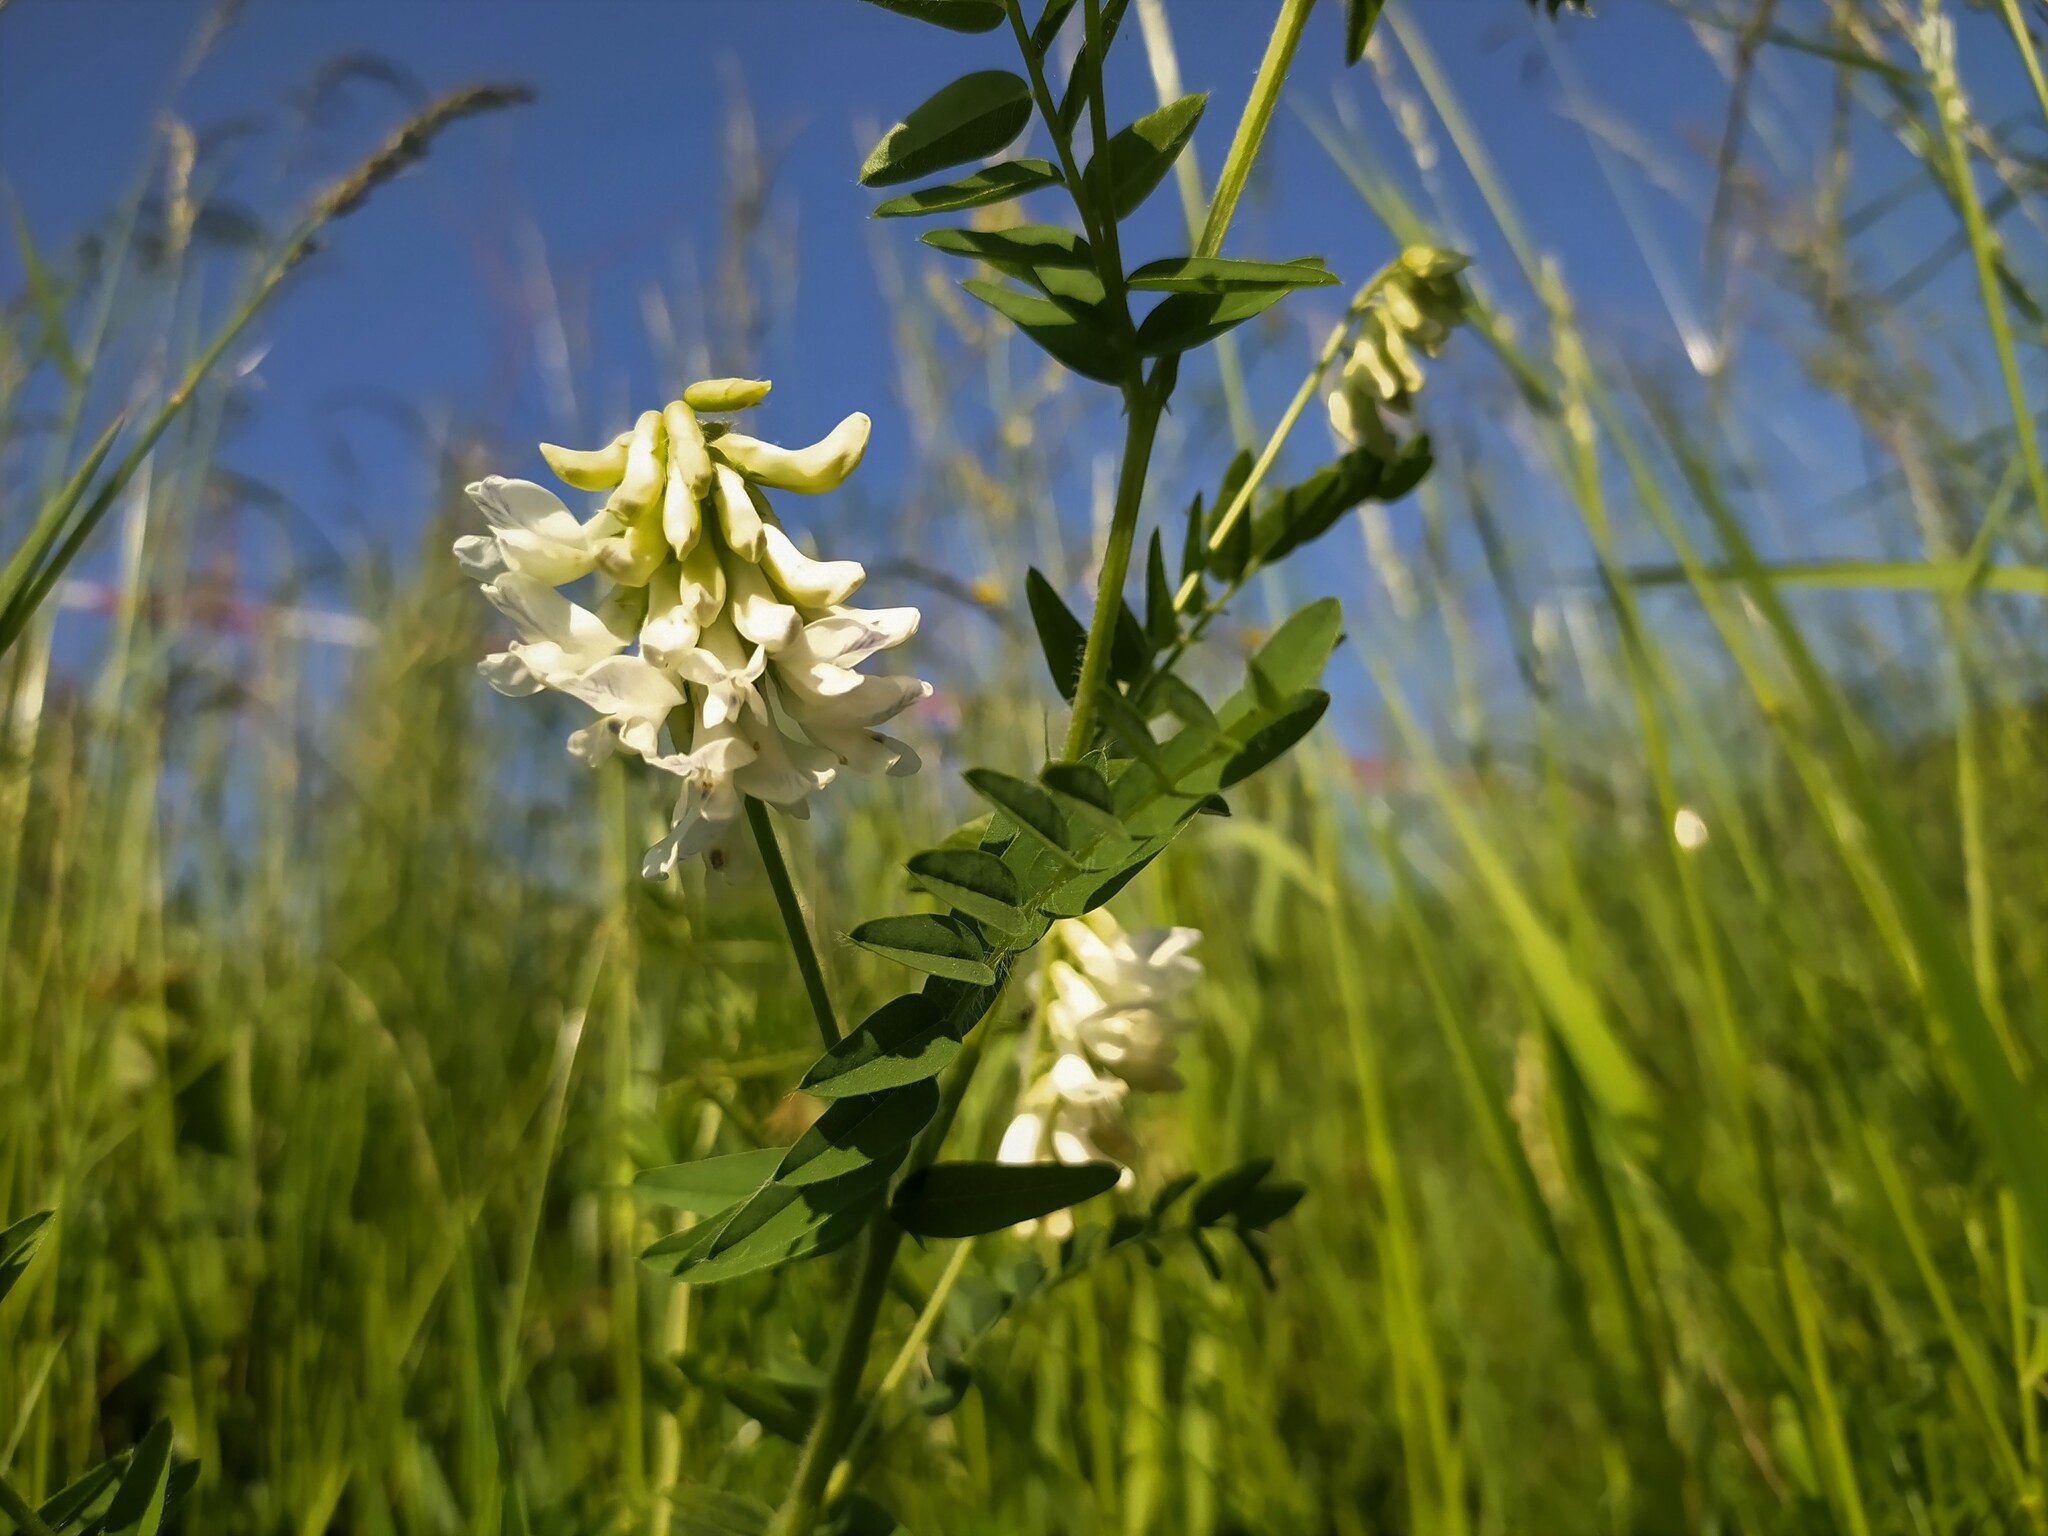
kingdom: Plantae
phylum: Tracheophyta
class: Magnoliopsida
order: Fabales
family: Fabaceae
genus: Vicia
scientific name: Vicia orobus
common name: Wood bitter-vetch
